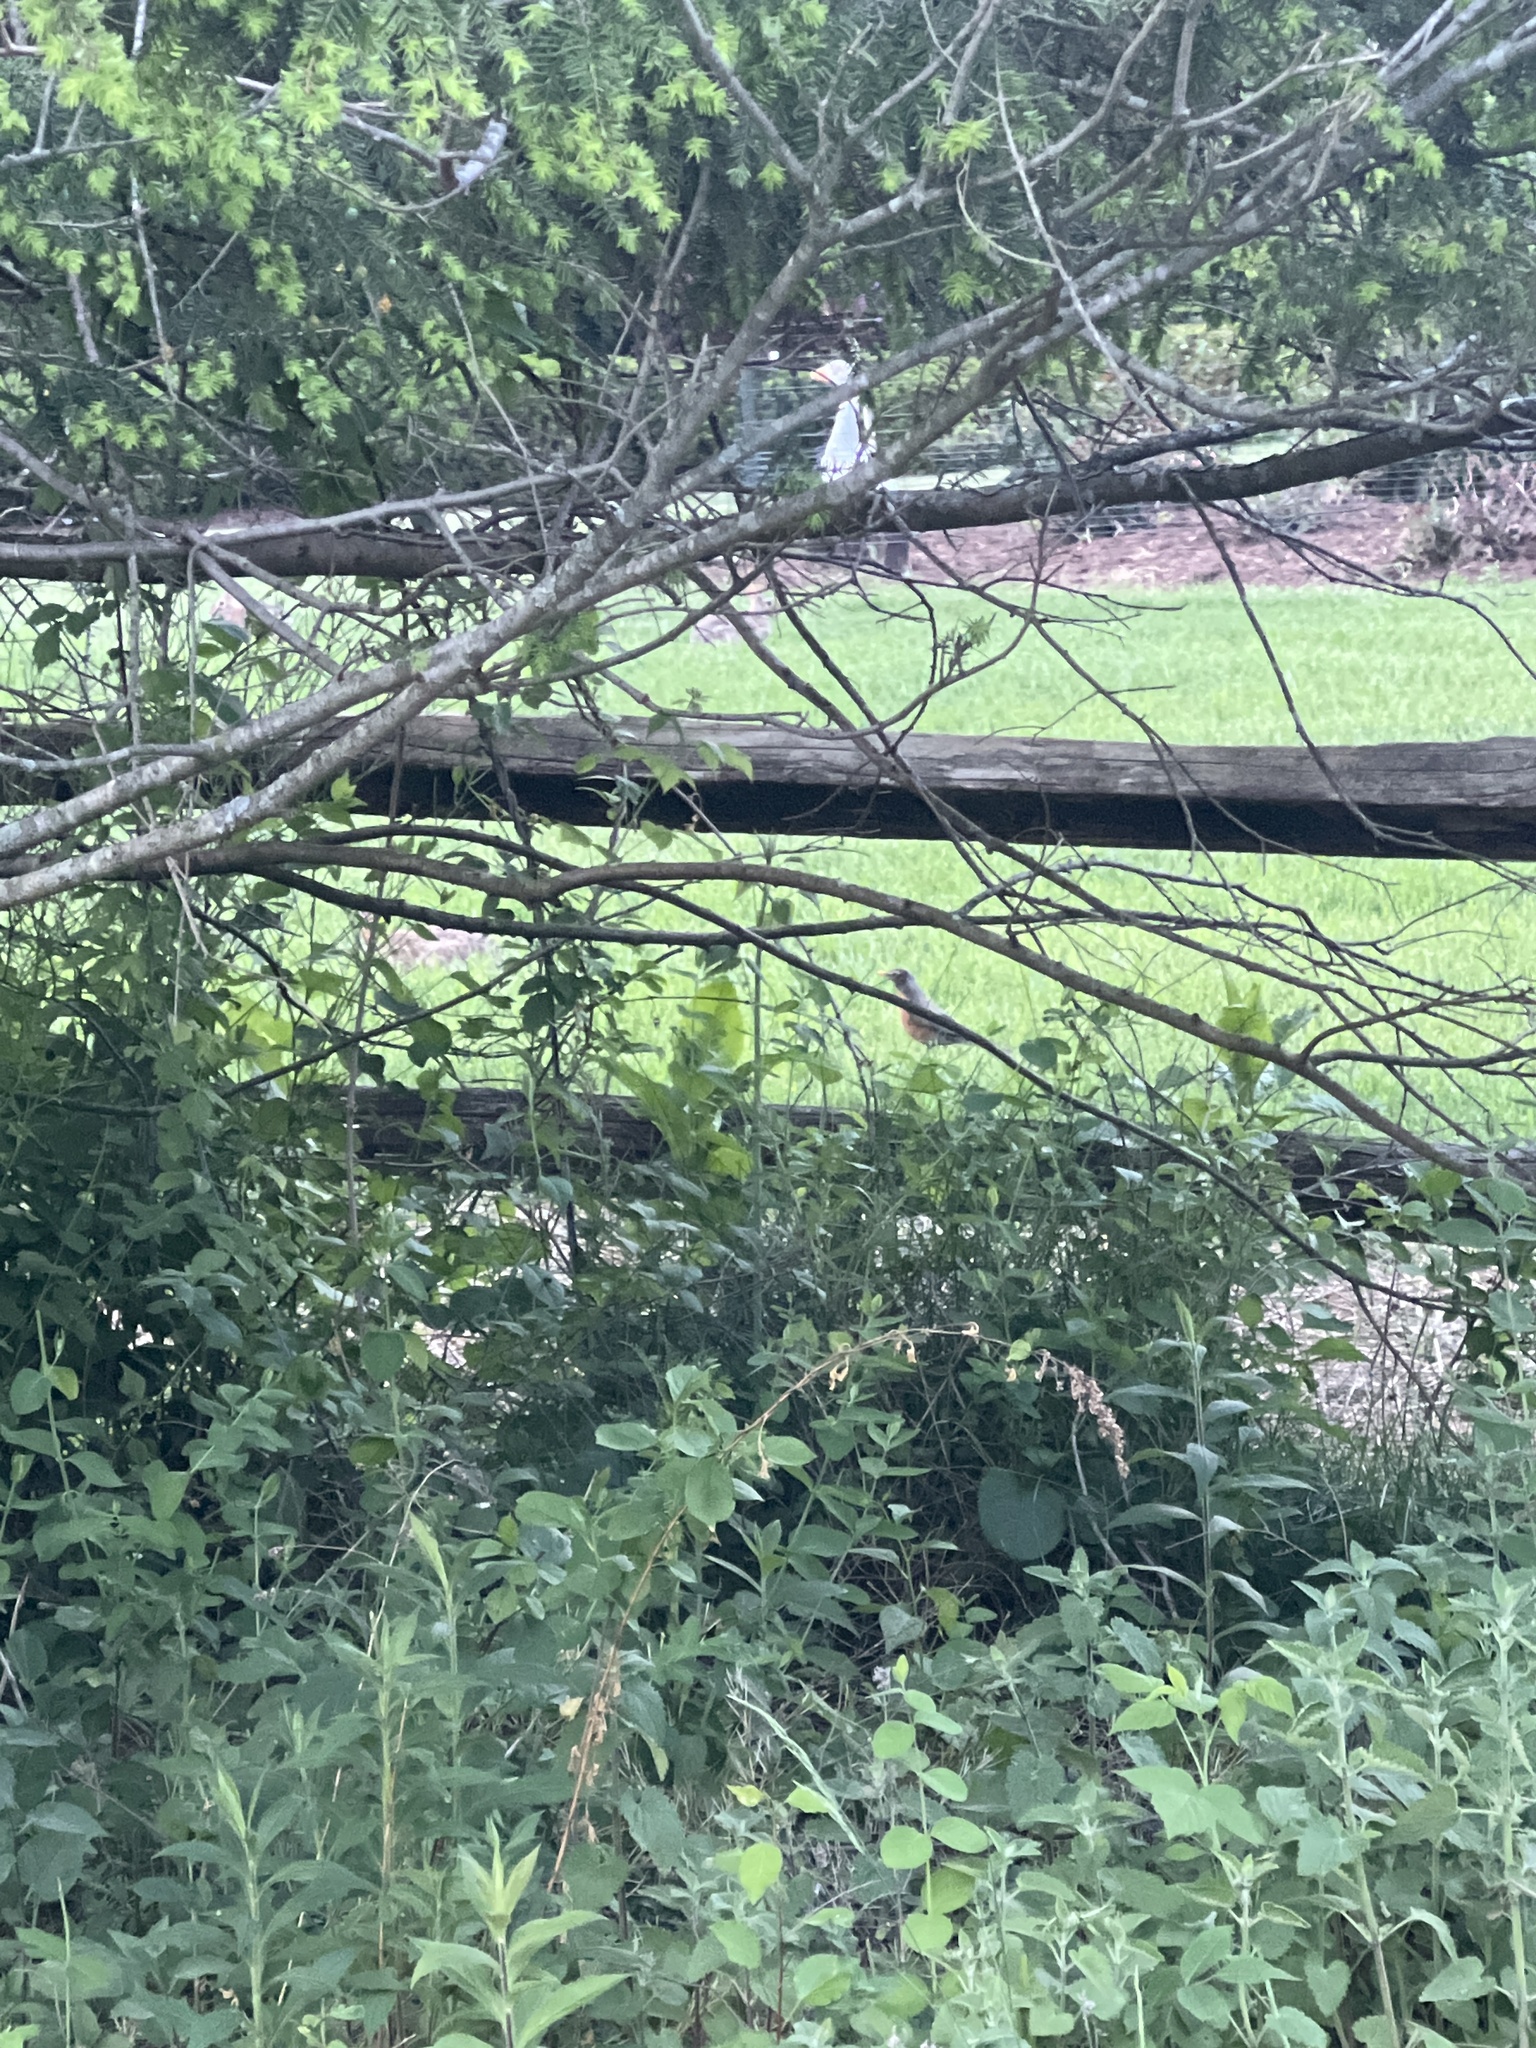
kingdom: Animalia
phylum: Chordata
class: Aves
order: Passeriformes
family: Turdidae
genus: Turdus
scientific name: Turdus migratorius
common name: American robin
